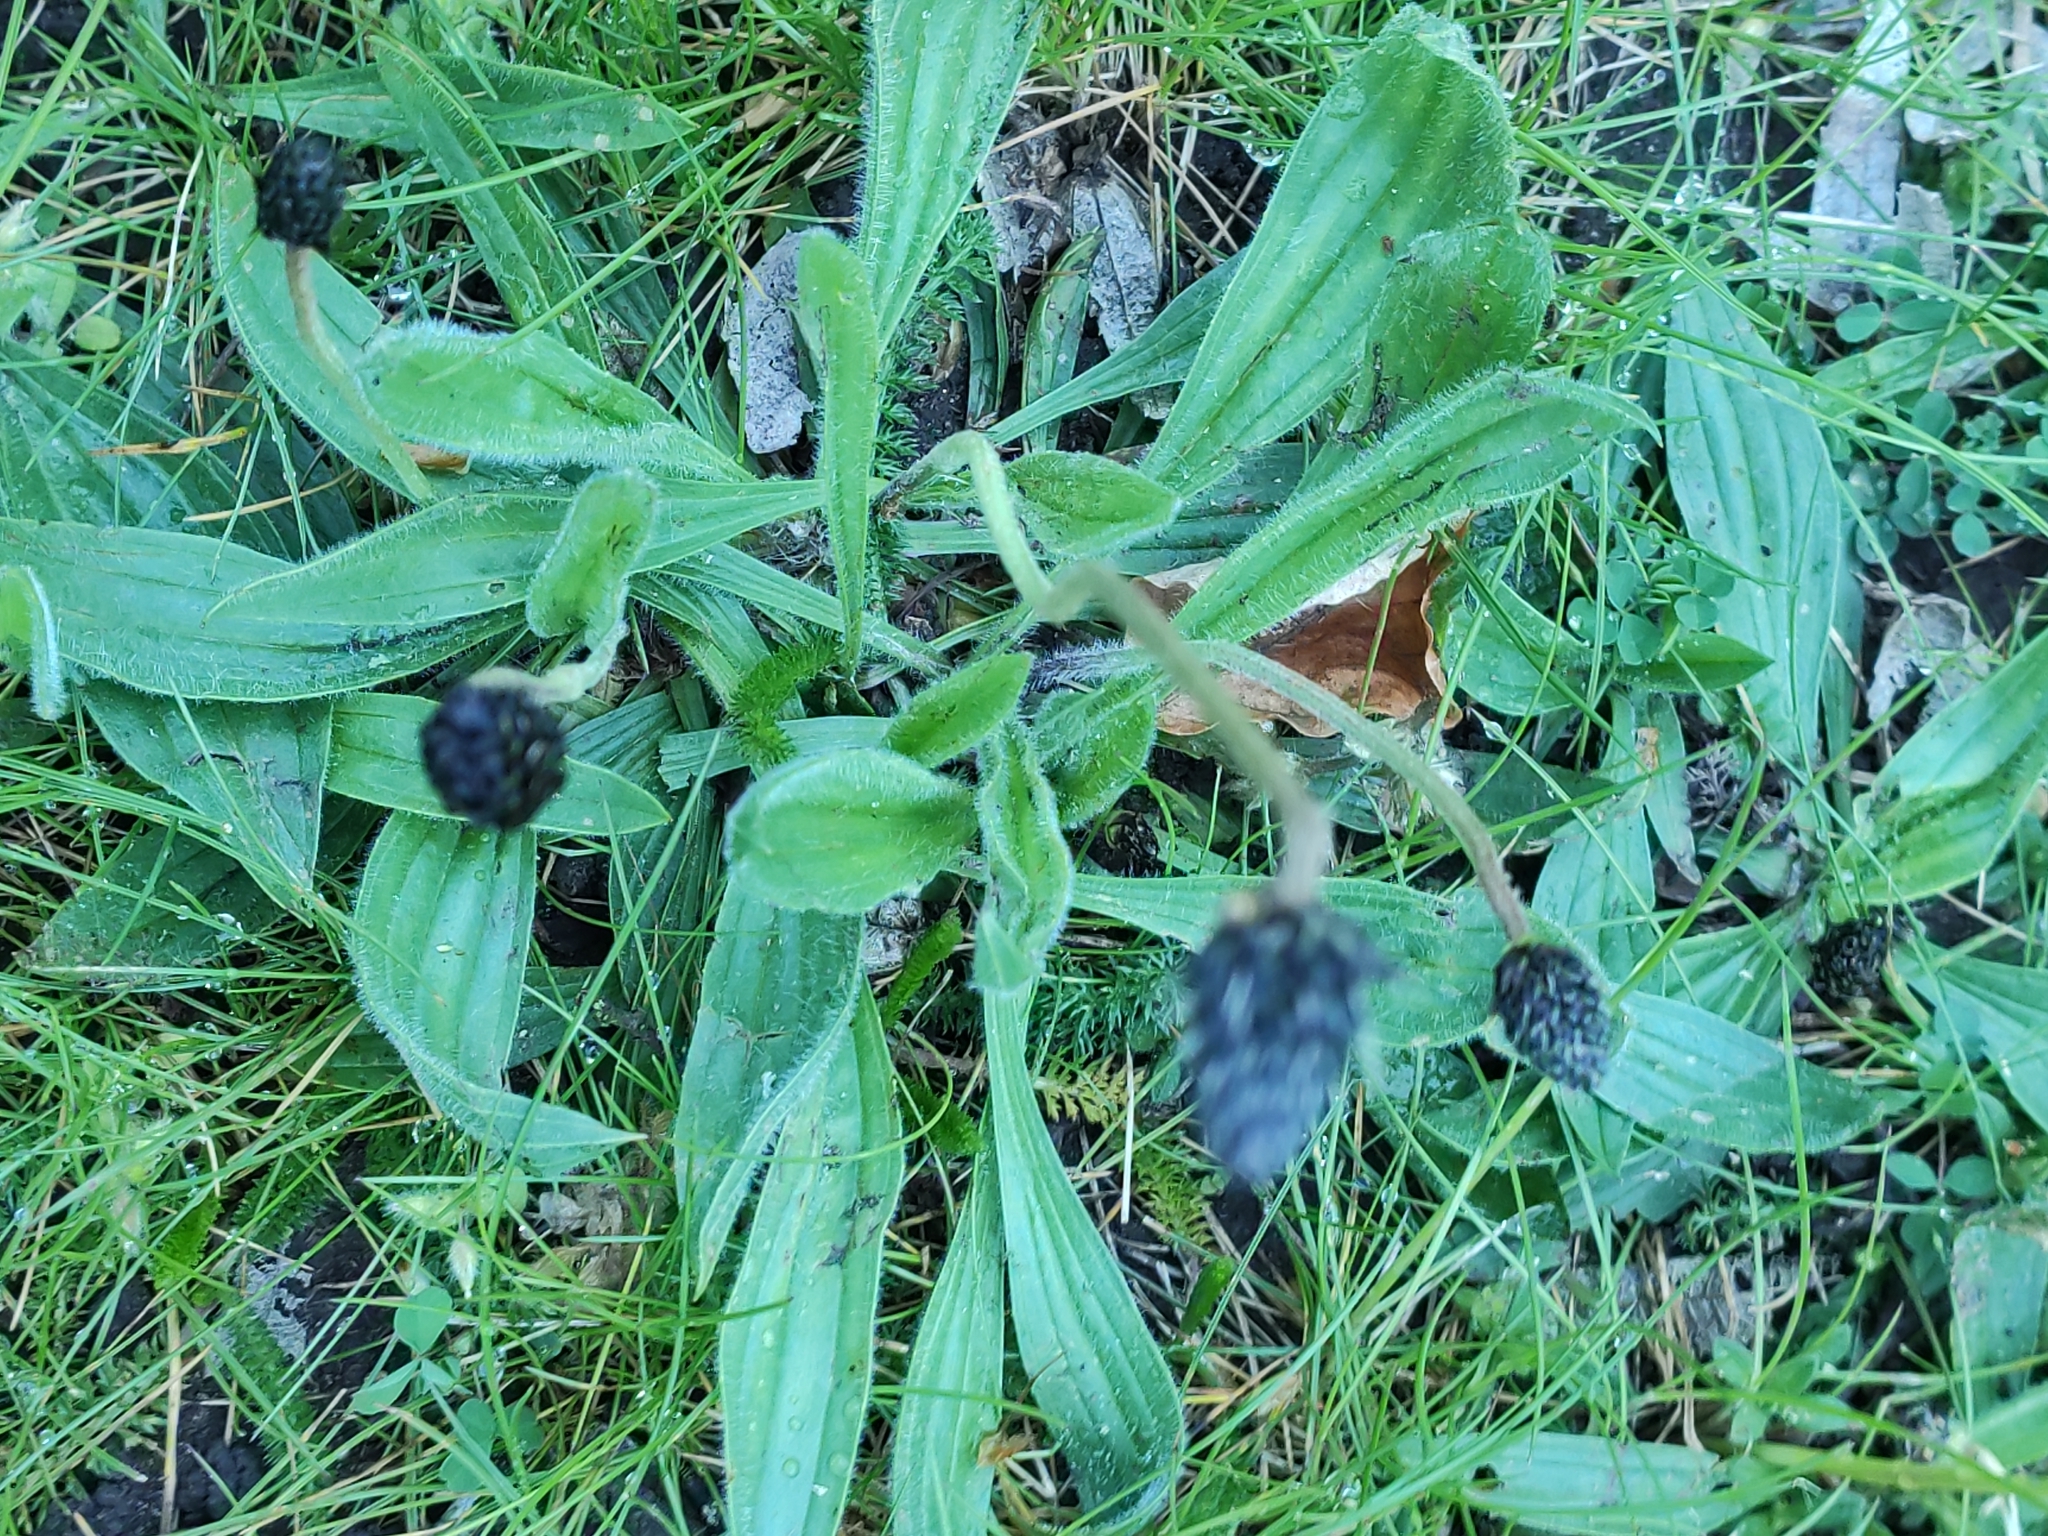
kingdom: Plantae
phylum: Tracheophyta
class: Magnoliopsida
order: Lamiales
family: Plantaginaceae
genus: Plantago
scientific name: Plantago lanceolata
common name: Ribwort plantain
